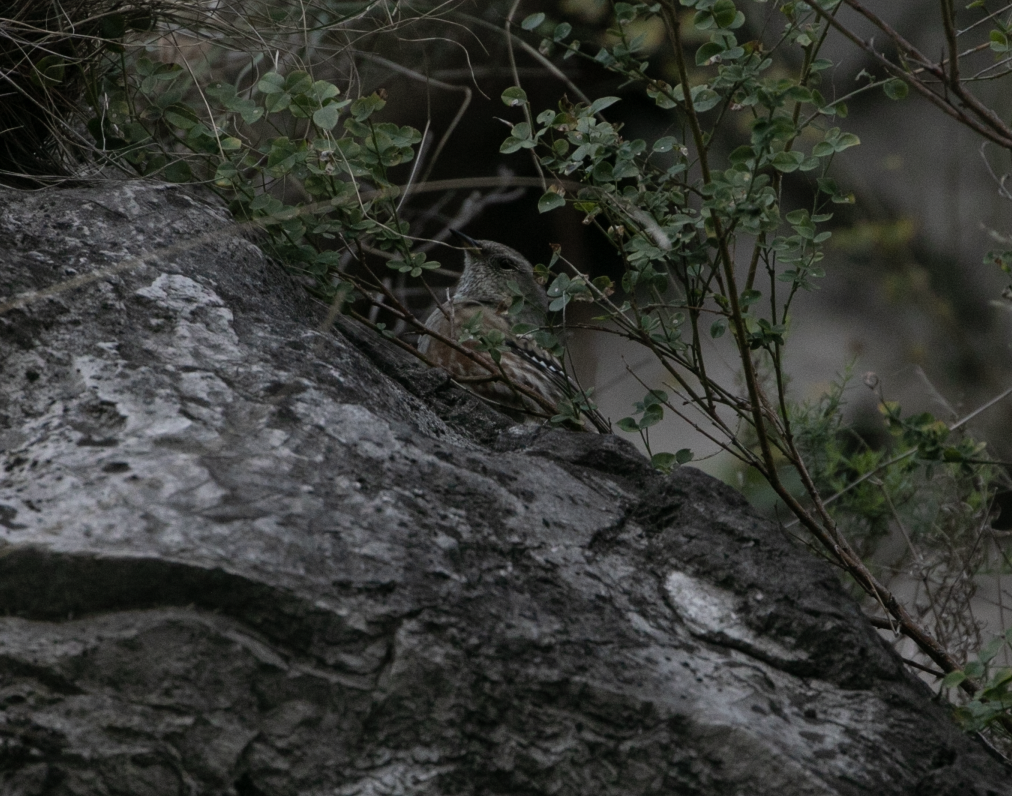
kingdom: Animalia
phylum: Chordata
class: Aves
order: Passeriformes
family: Prunellidae
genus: Prunella
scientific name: Prunella collaris
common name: Alpine accentor
